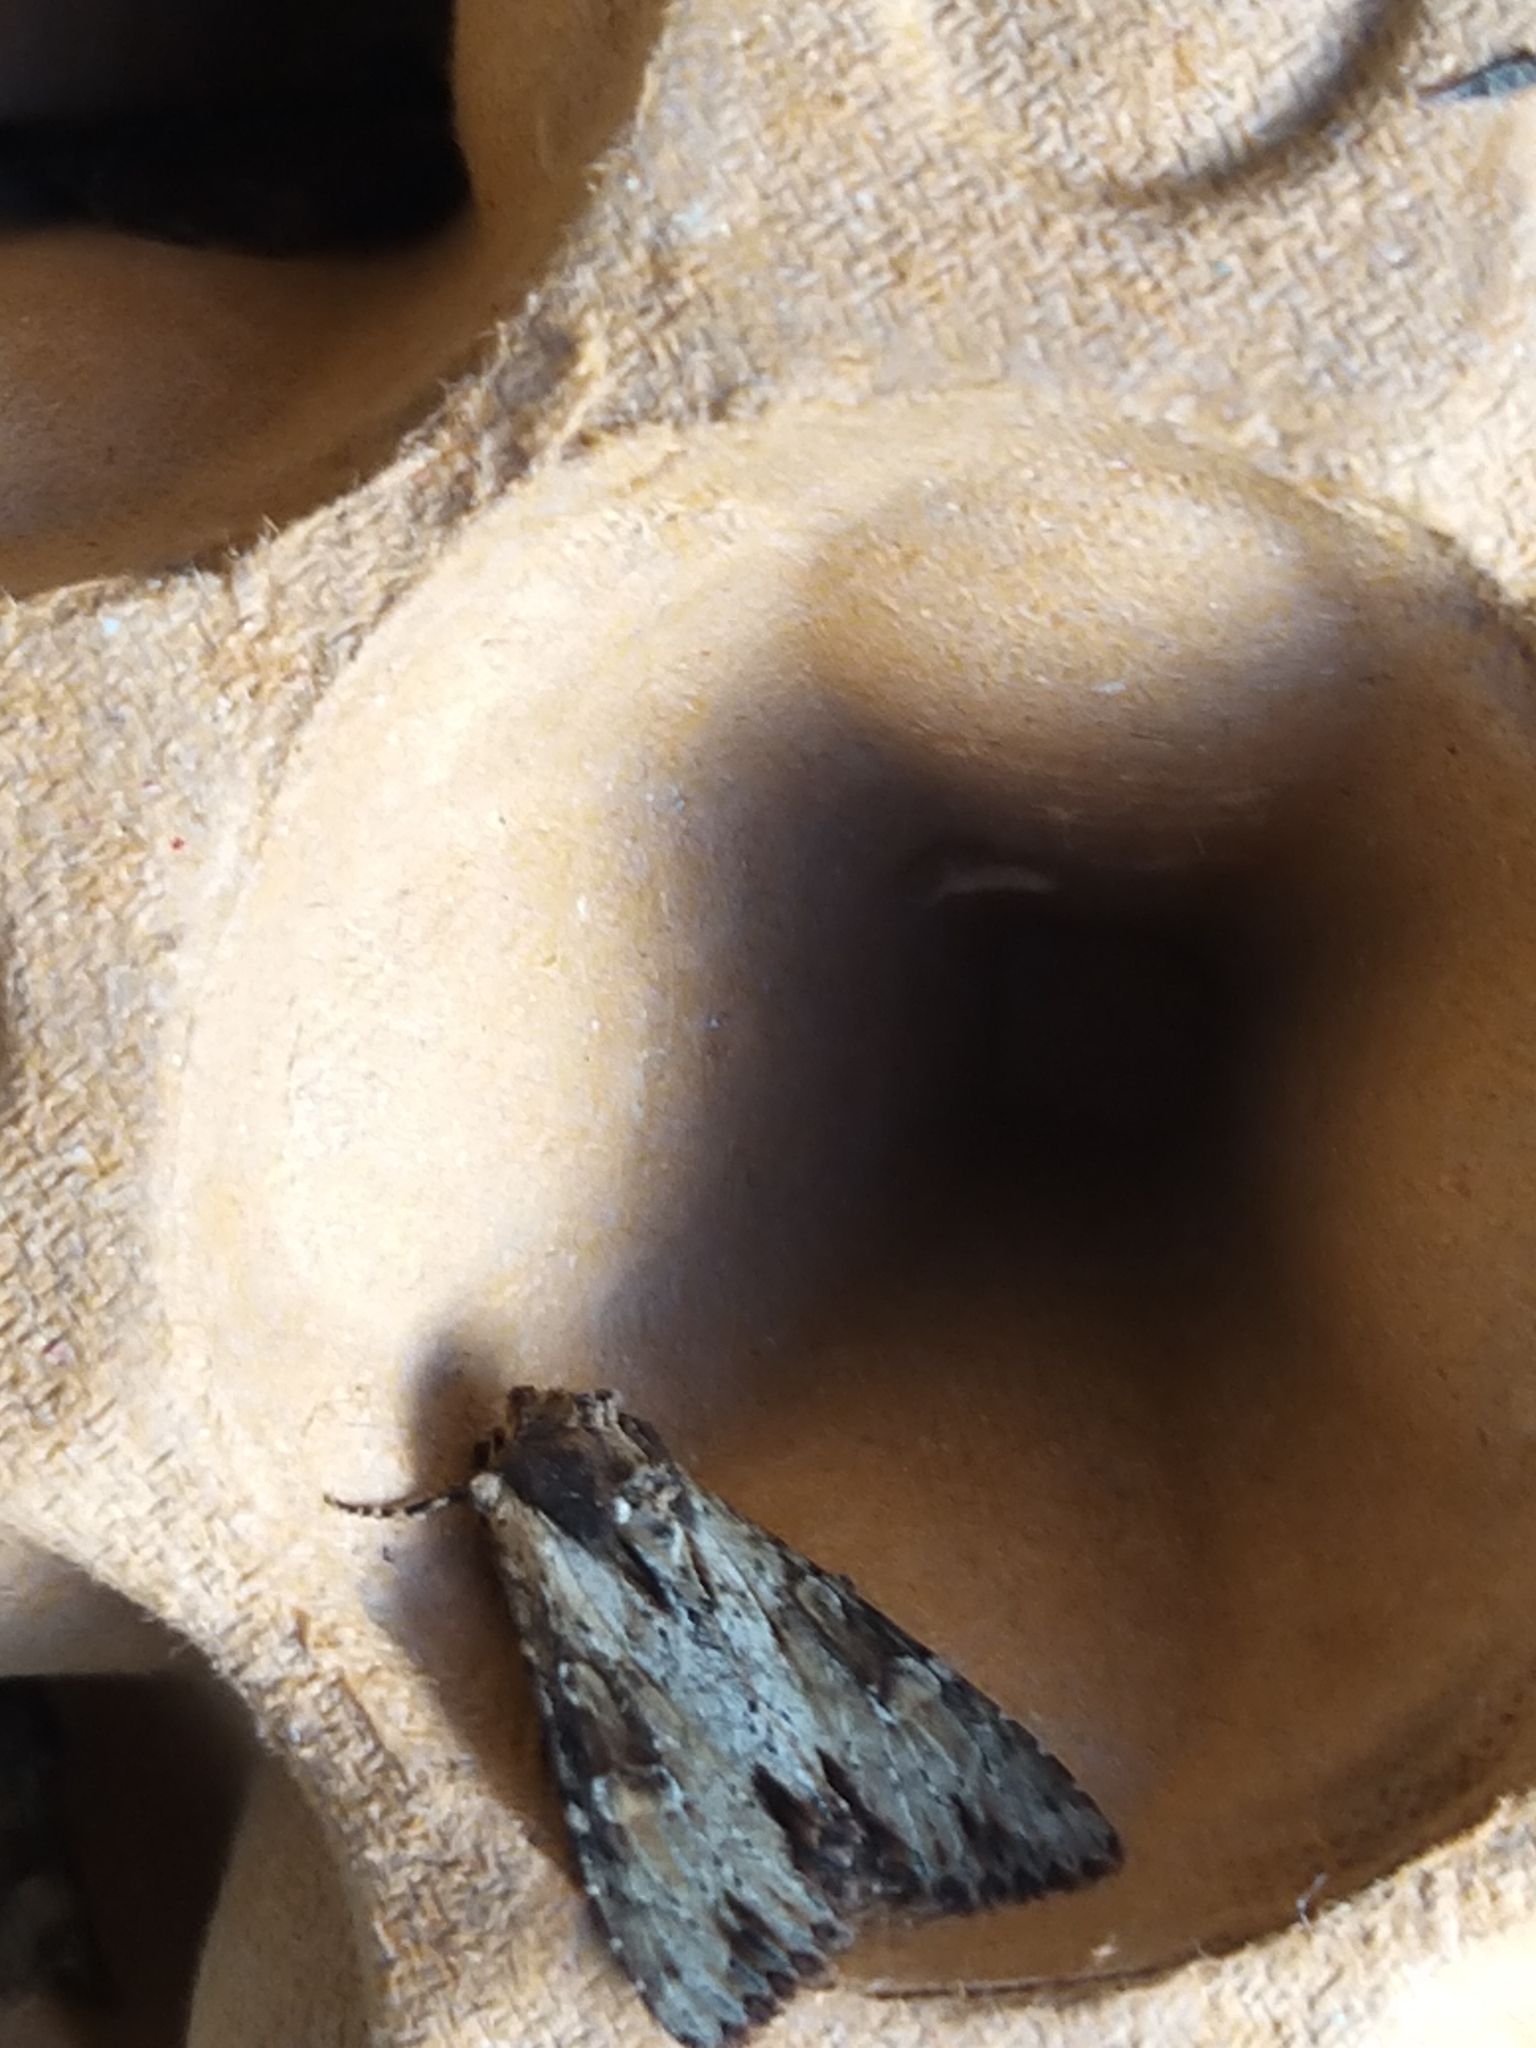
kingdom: Animalia
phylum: Arthropoda
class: Insecta
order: Lepidoptera
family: Noctuidae
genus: Apamea
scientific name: Apamea crenata
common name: Clouded-bordered brindle
